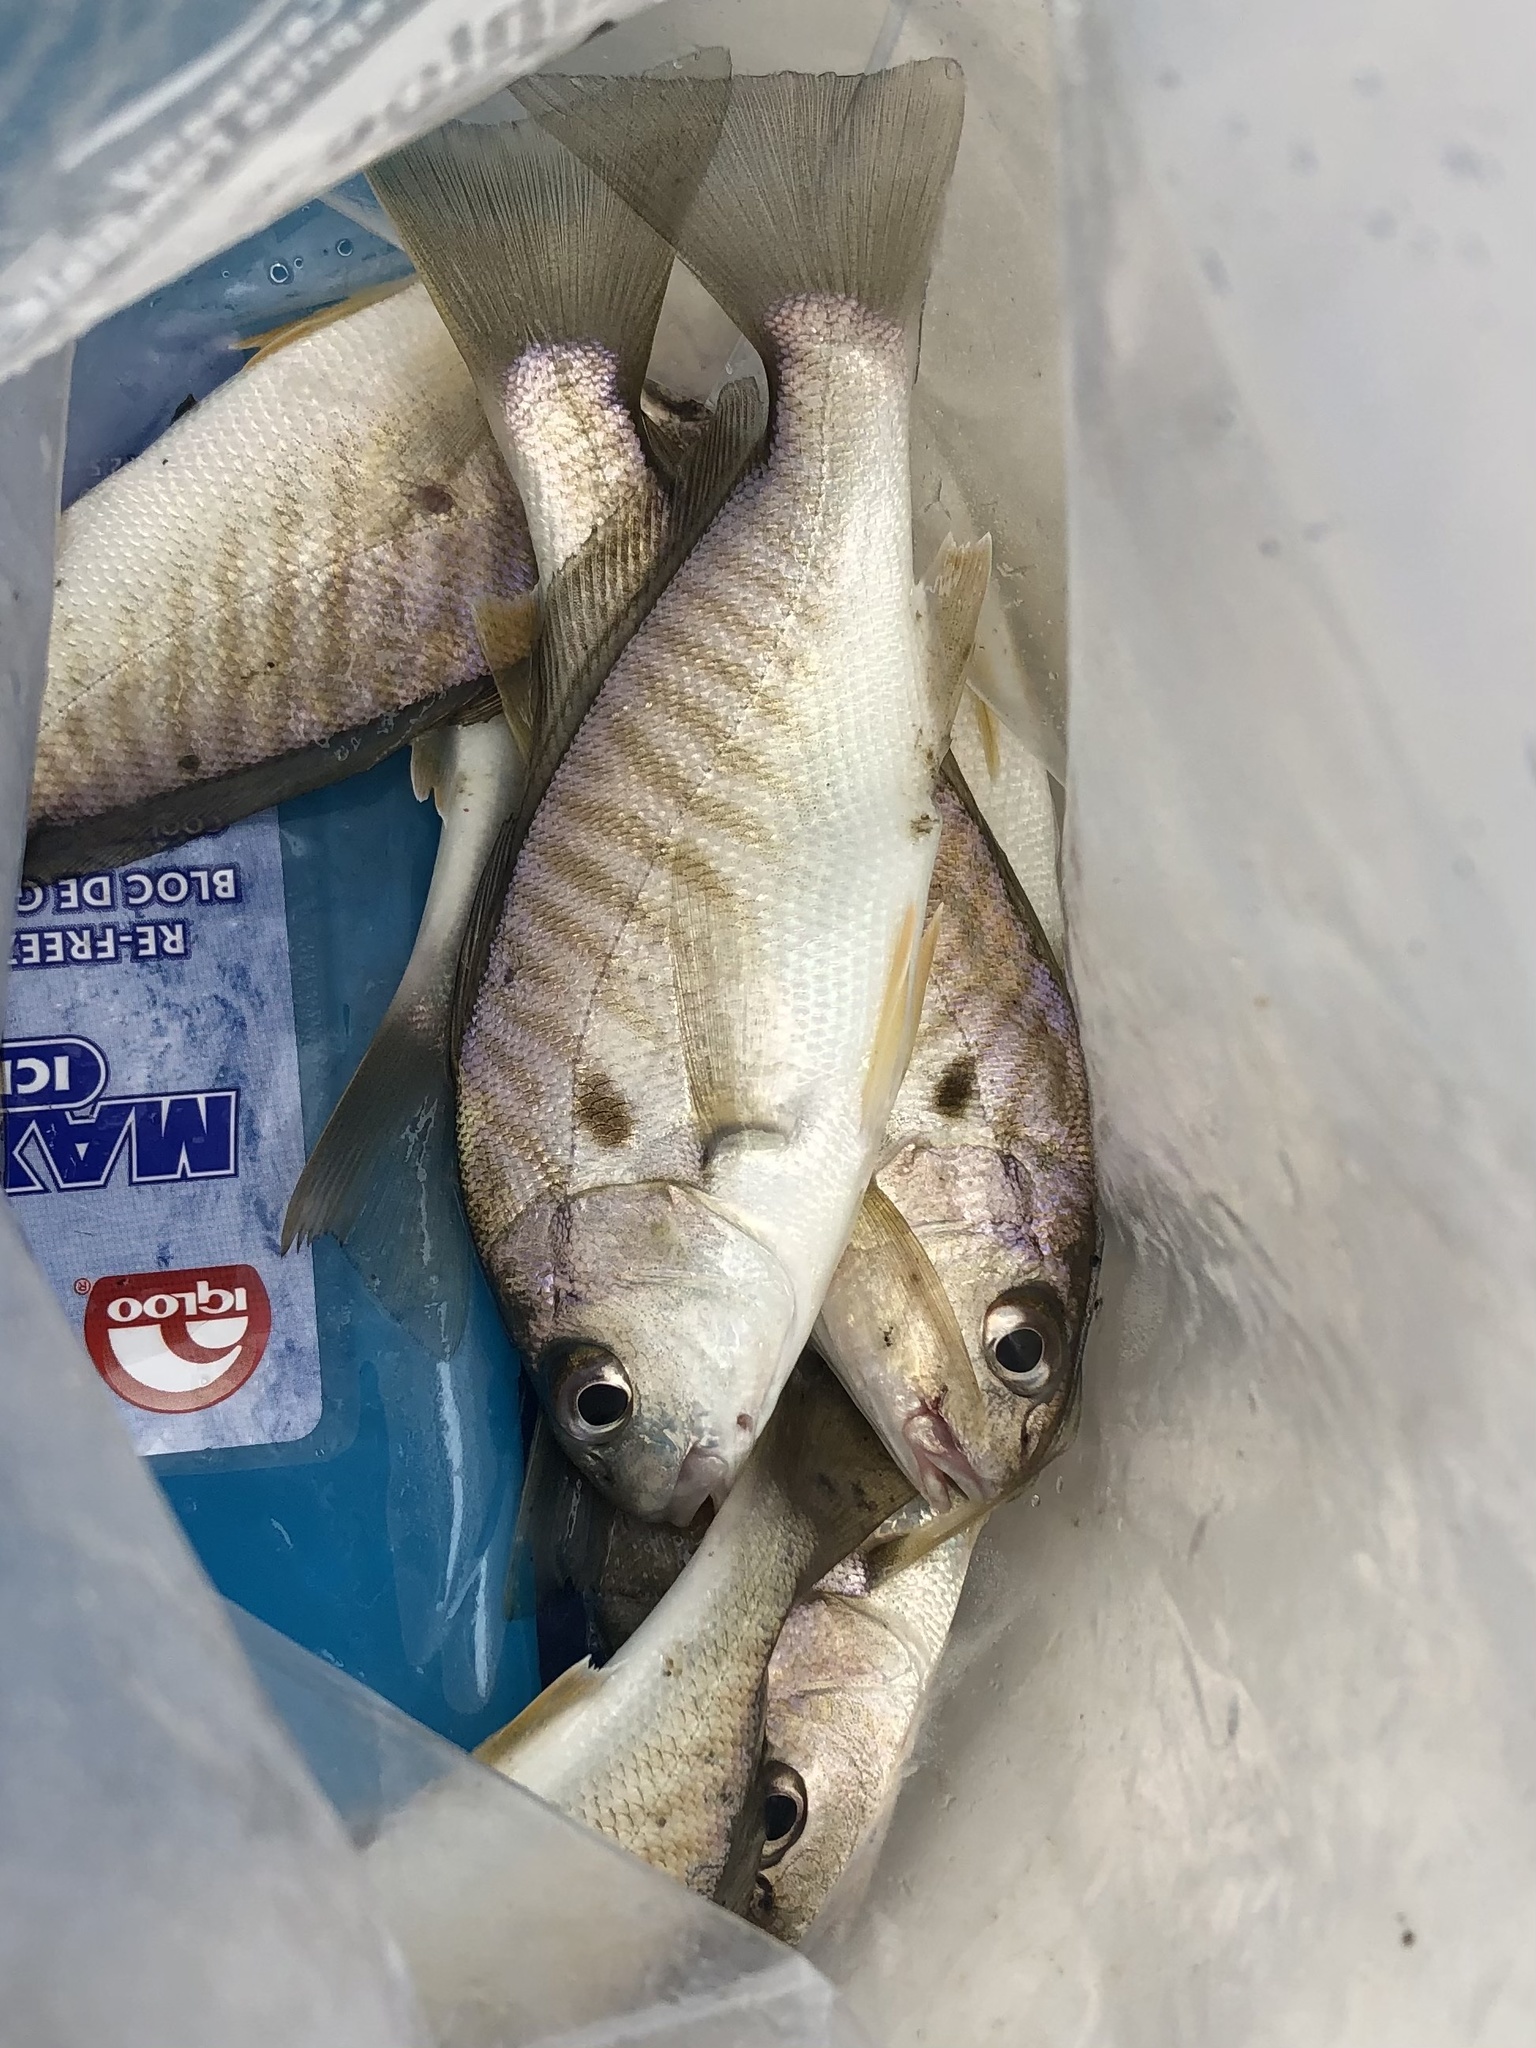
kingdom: Animalia
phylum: Chordata
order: Perciformes
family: Sciaenidae
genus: Leiostomus
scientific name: Leiostomus xanthurus
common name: Spot
